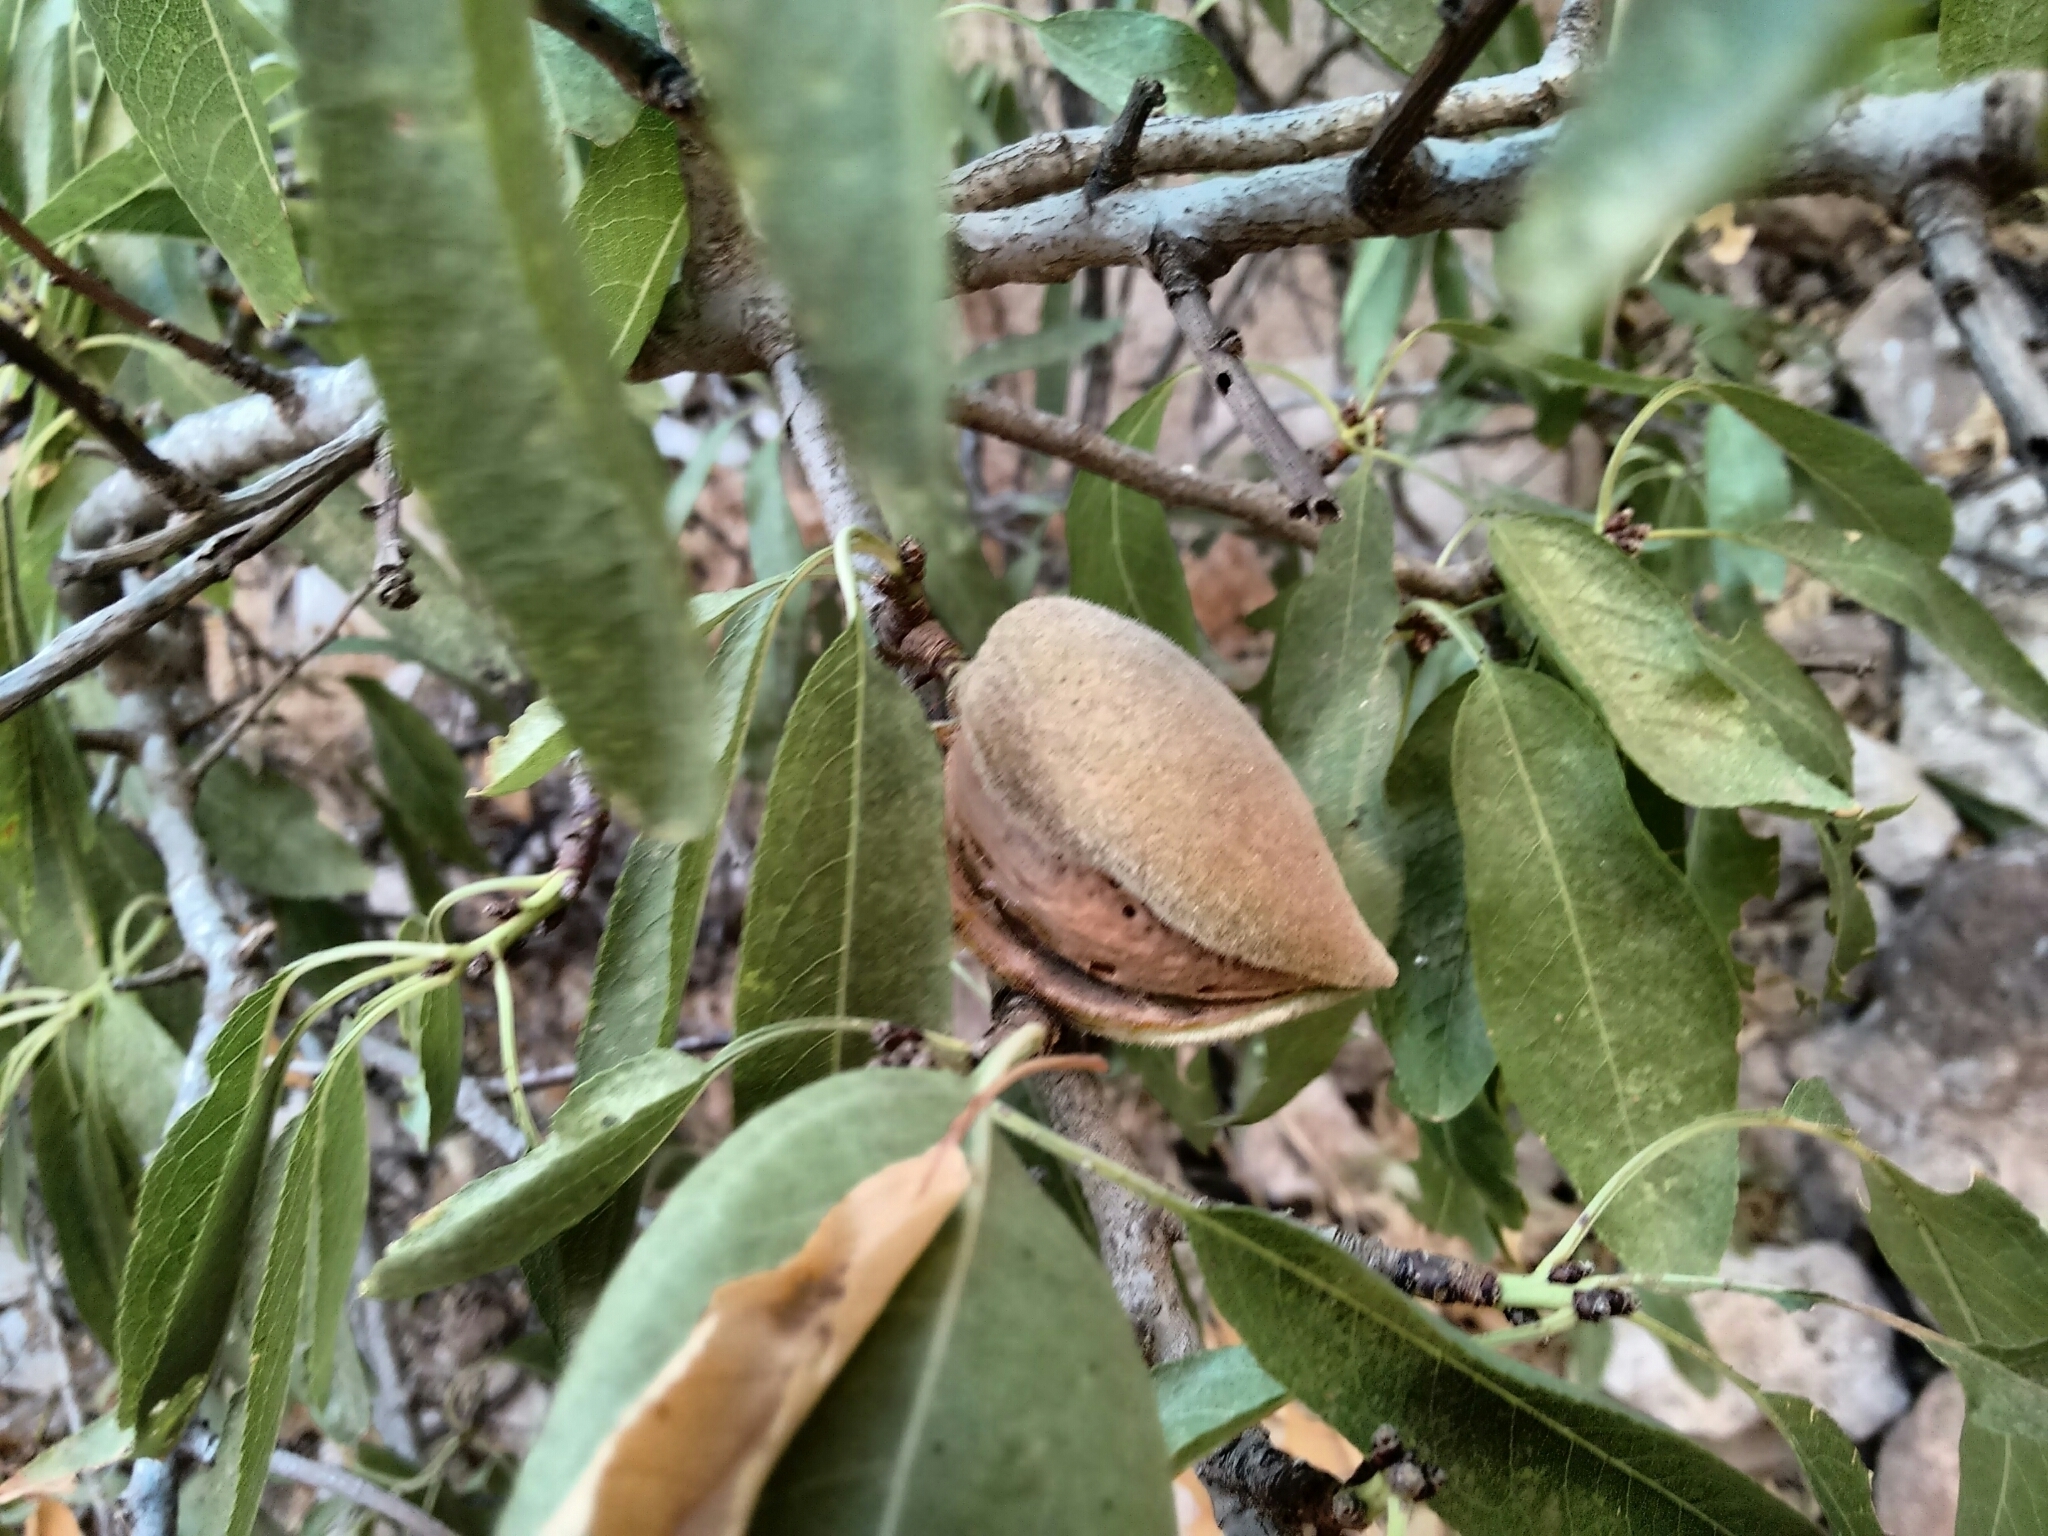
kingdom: Plantae
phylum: Tracheophyta
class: Magnoliopsida
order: Rosales
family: Rosaceae
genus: Prunus
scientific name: Prunus amygdalus
